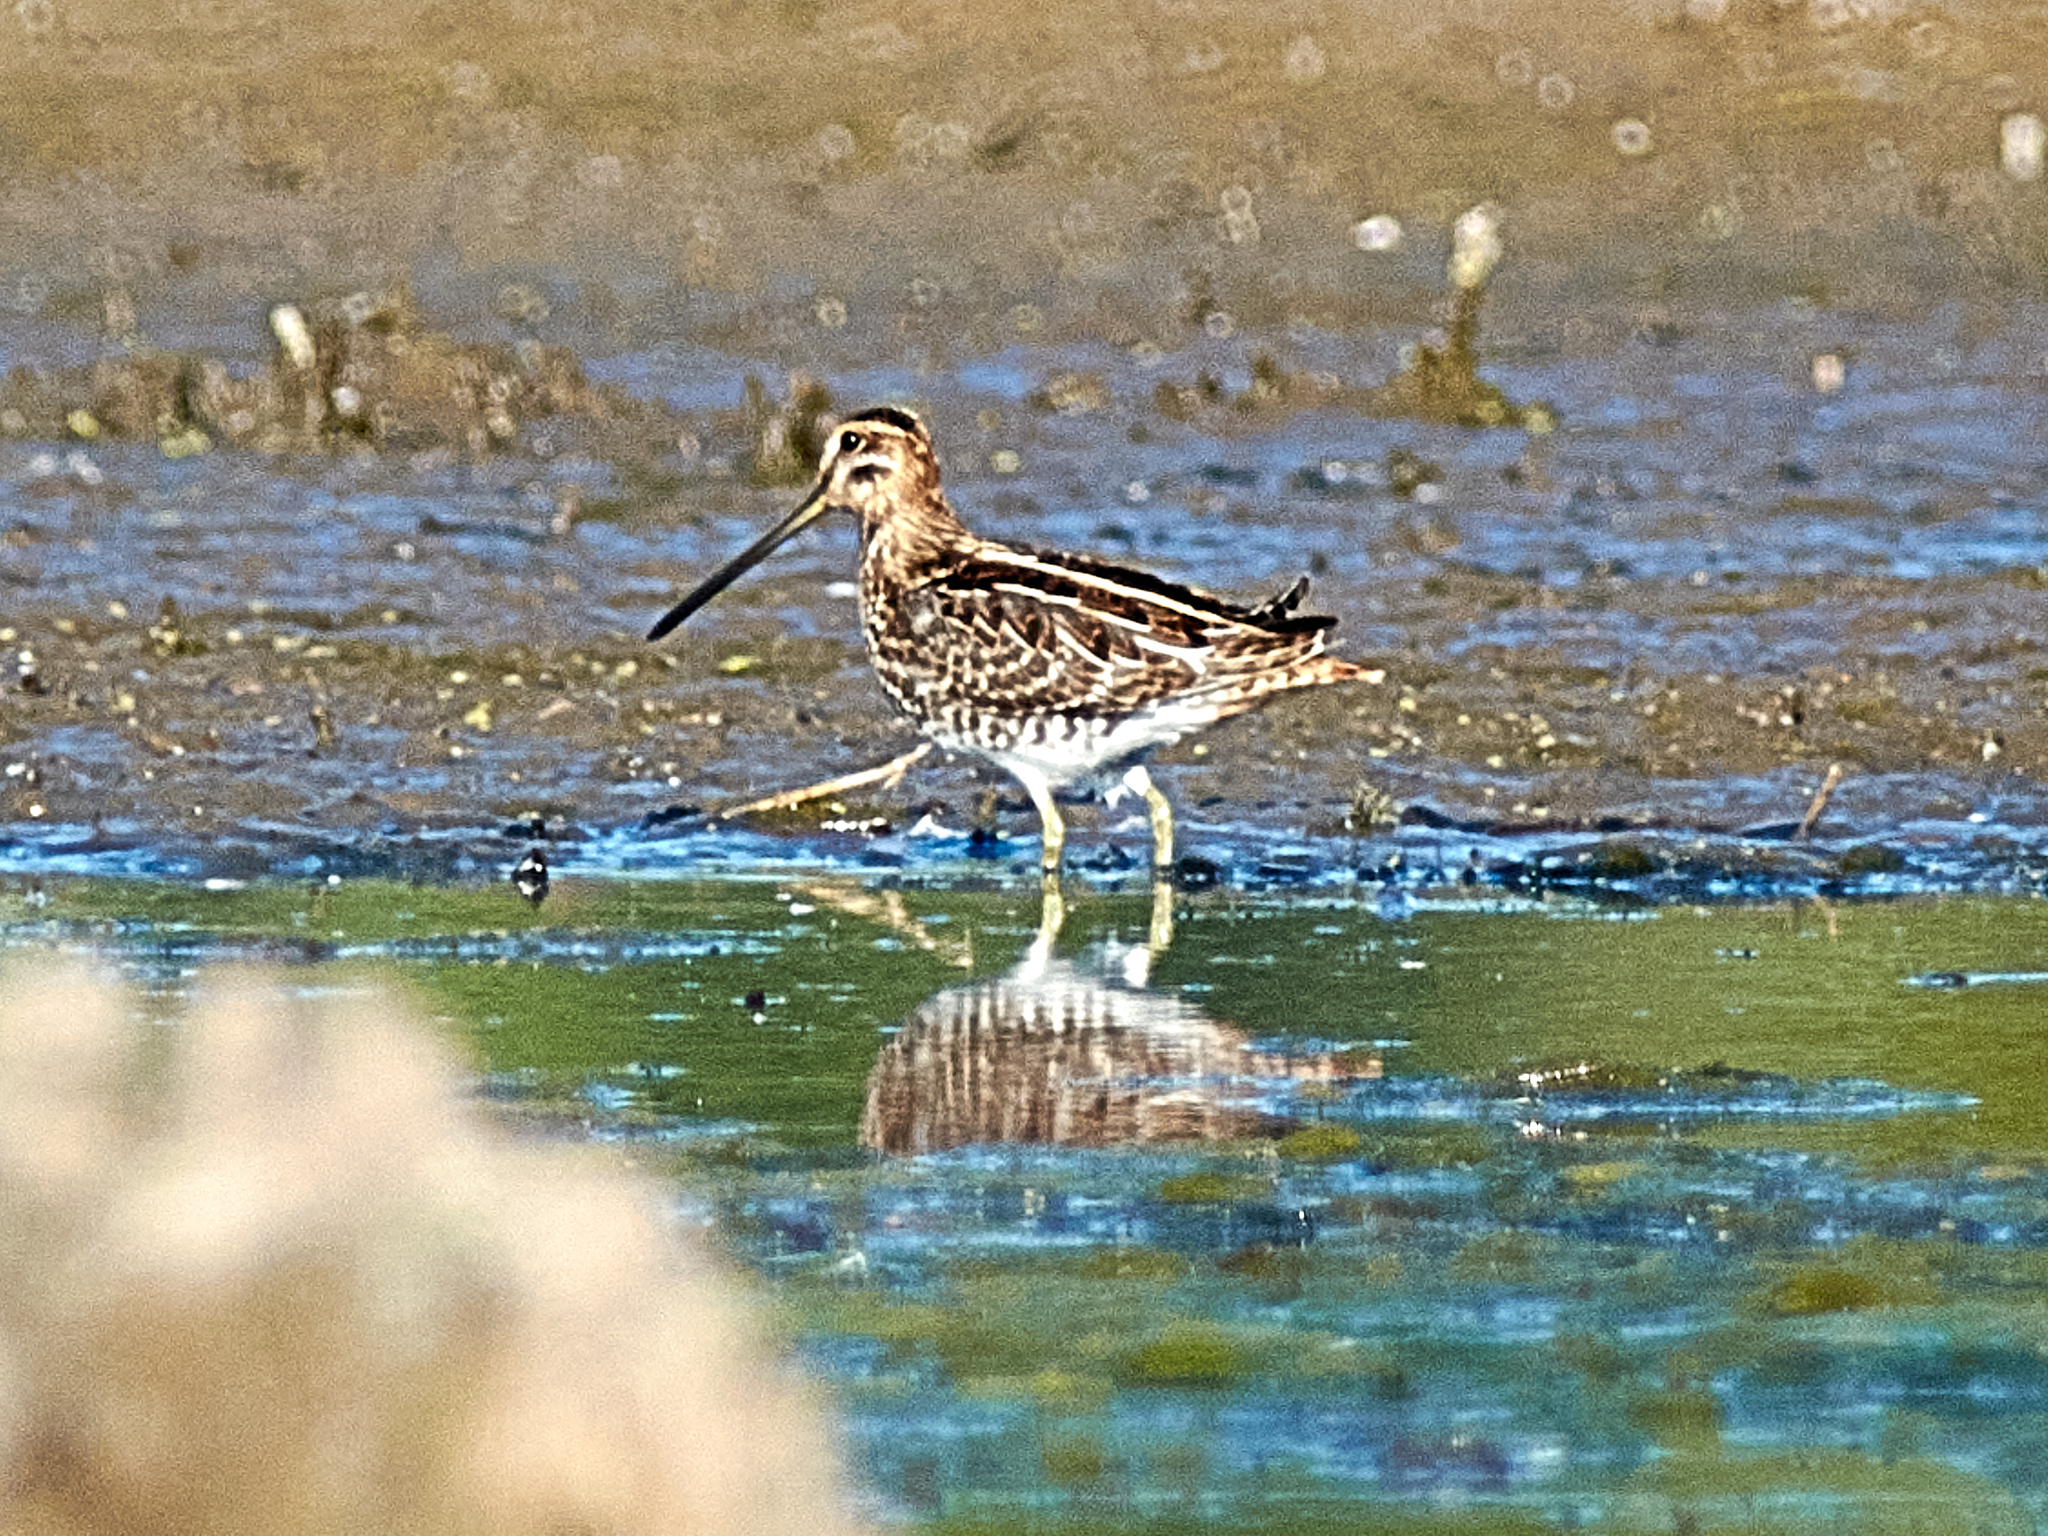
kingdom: Animalia
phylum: Chordata
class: Aves
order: Charadriiformes
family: Scolopacidae
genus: Gallinago
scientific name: Gallinago gallinago
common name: Common snipe
